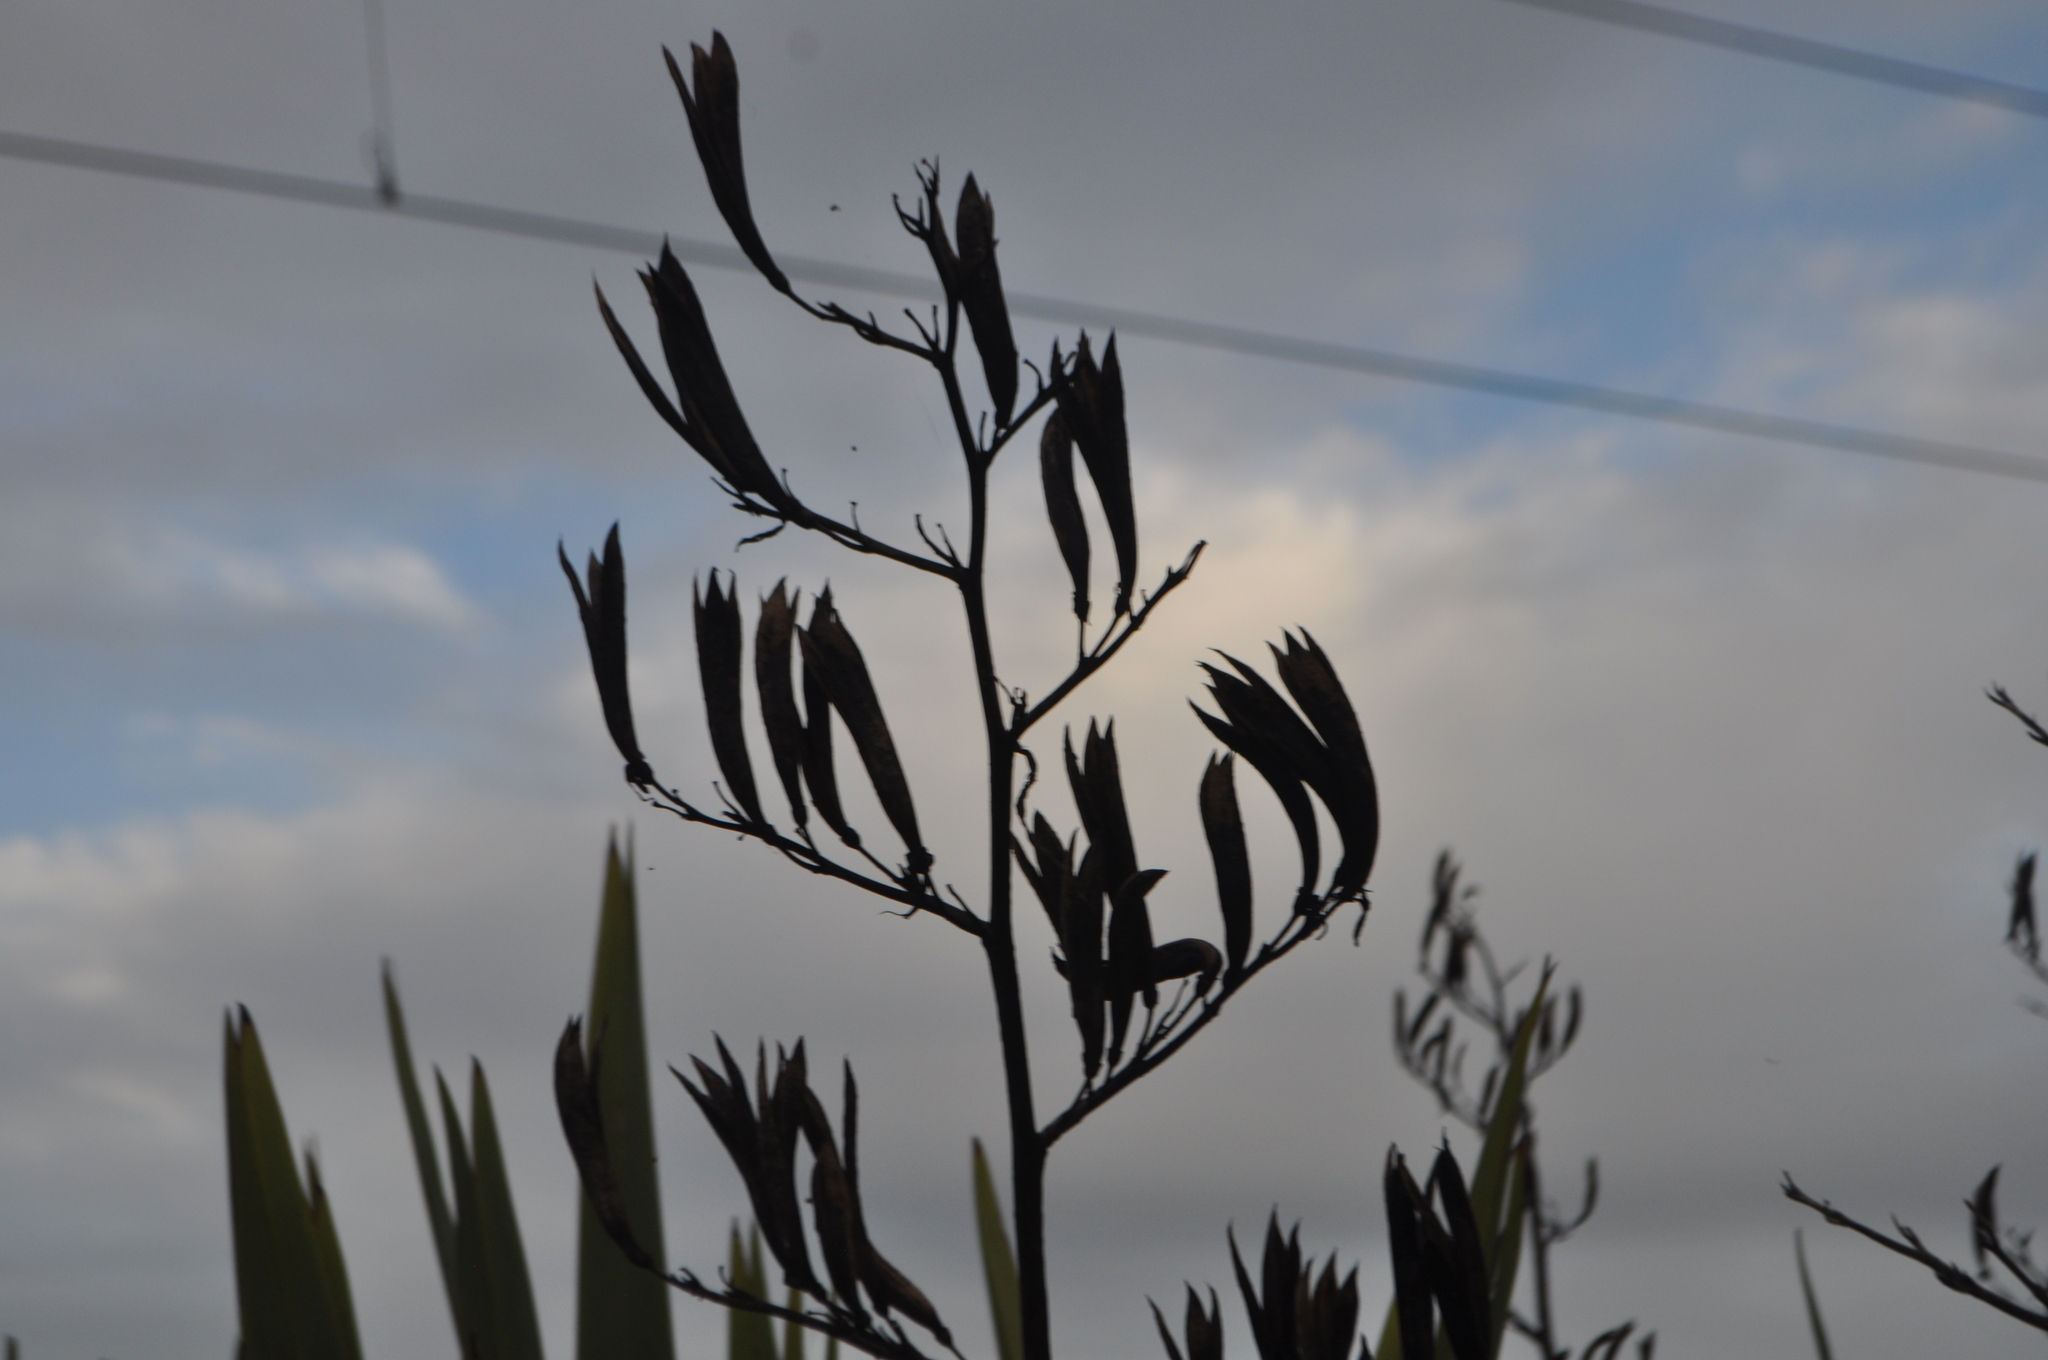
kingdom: Plantae
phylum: Tracheophyta
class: Liliopsida
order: Asparagales
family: Asphodelaceae
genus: Phormium
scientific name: Phormium tenax
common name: New zealand flax
